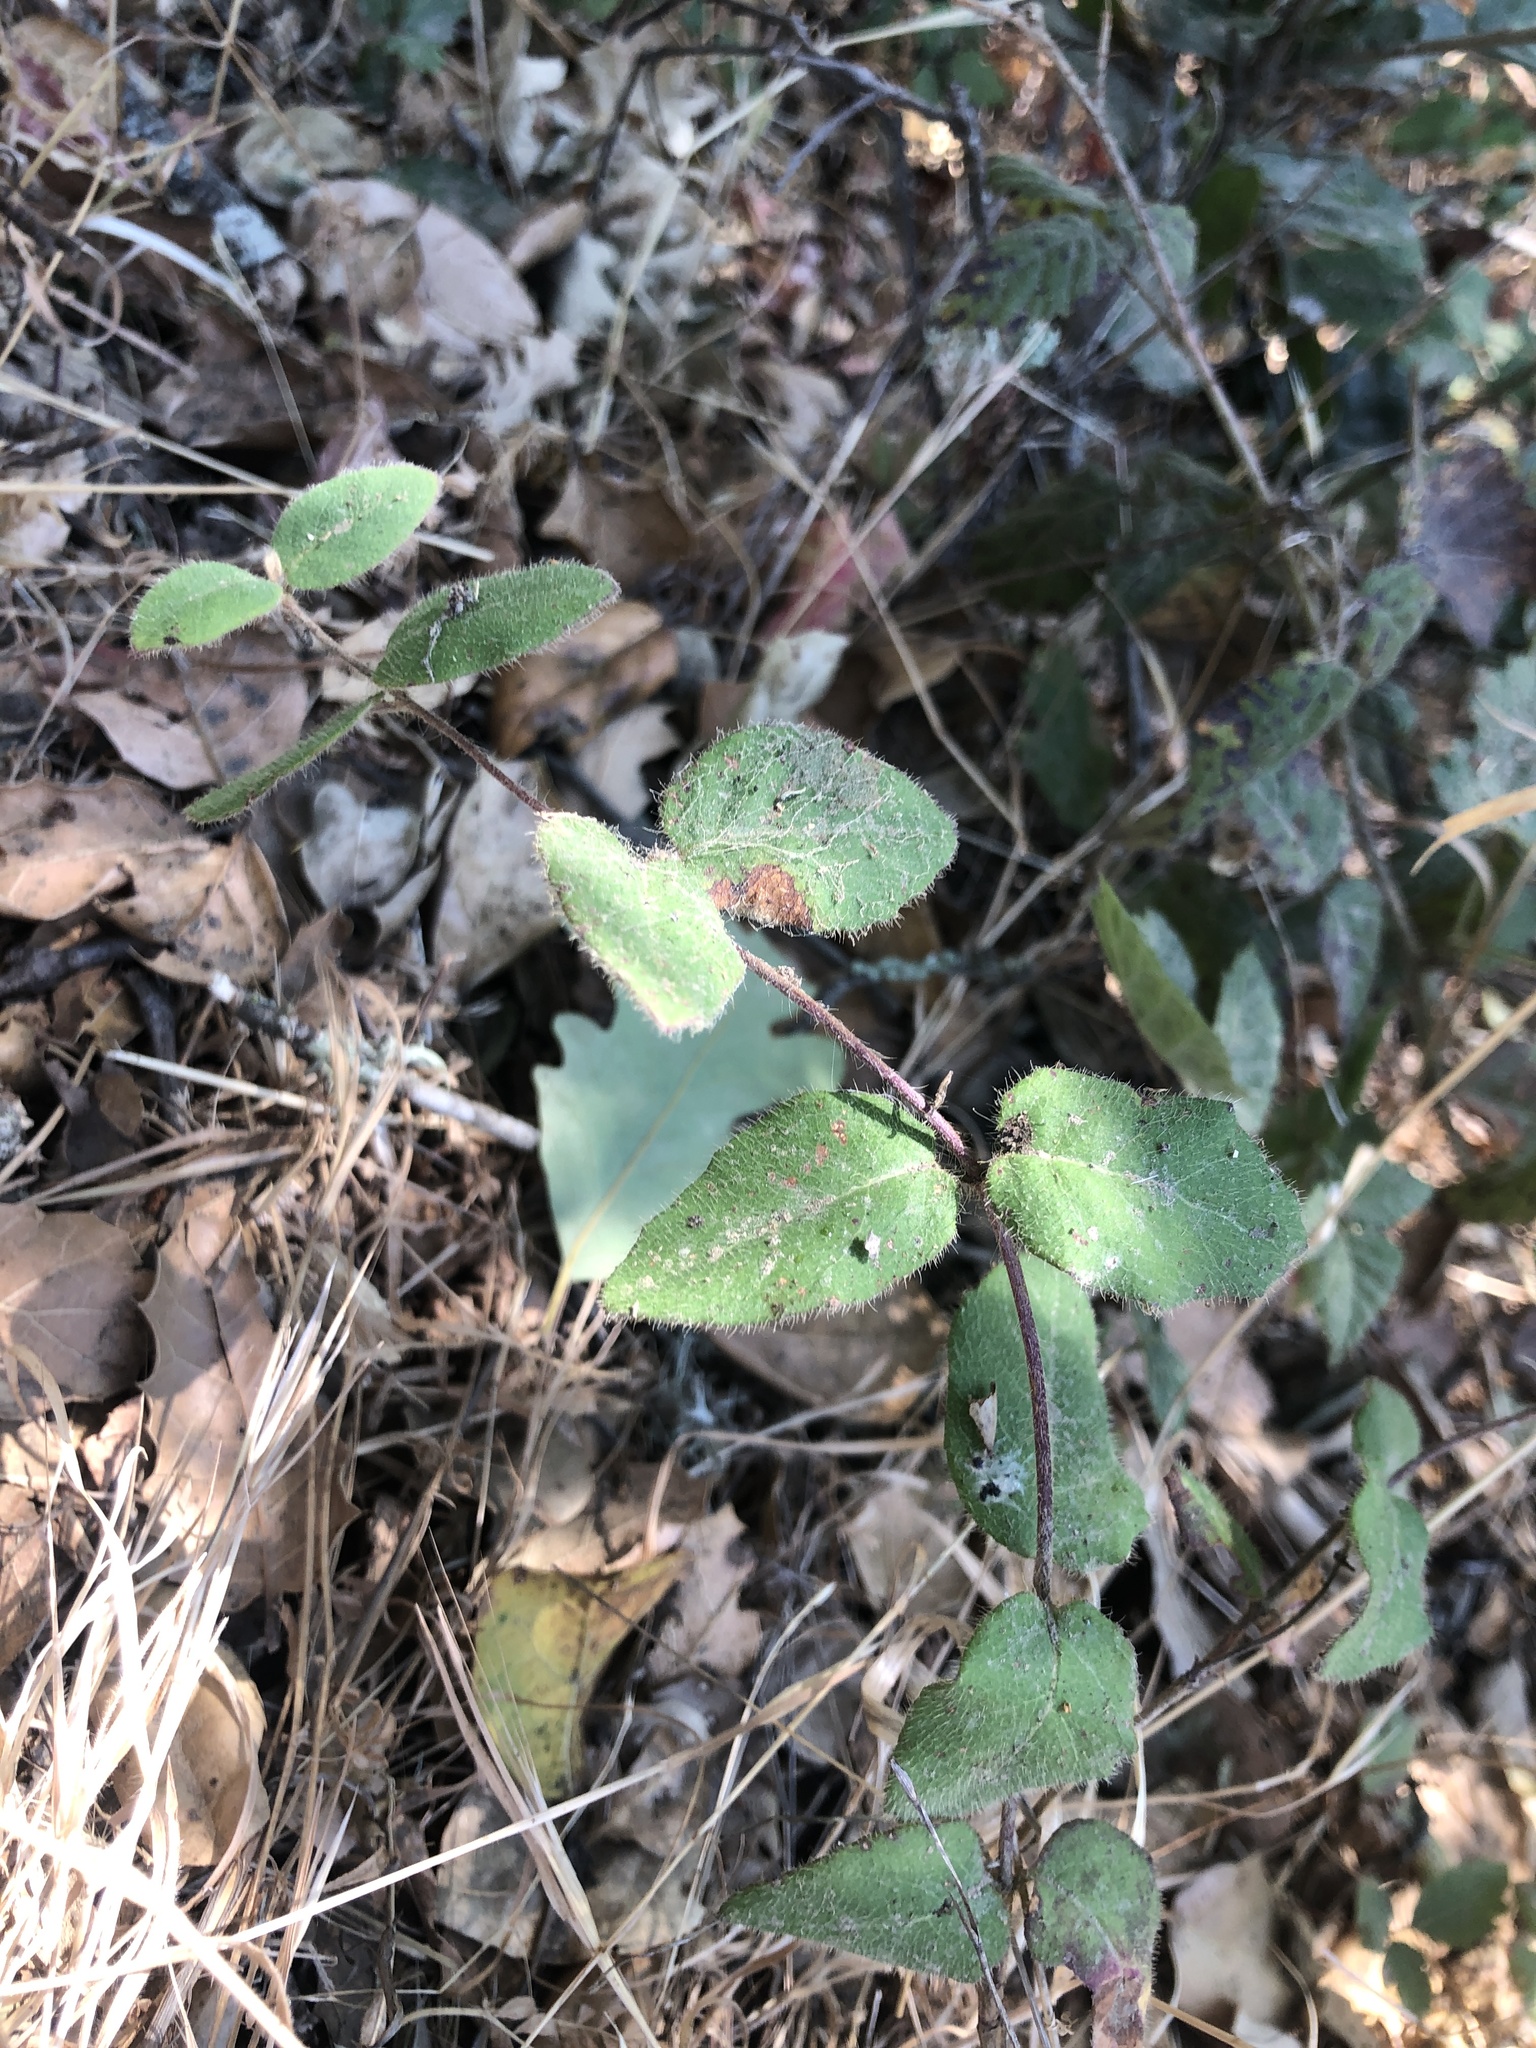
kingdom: Plantae
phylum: Tracheophyta
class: Magnoliopsida
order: Dipsacales
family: Caprifoliaceae
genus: Lonicera
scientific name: Lonicera hispidula
